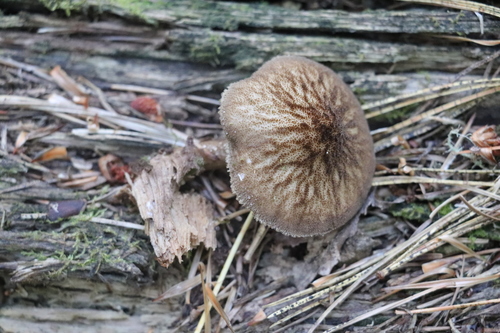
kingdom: Fungi
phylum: Basidiomycota
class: Agaricomycetes
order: Agaricales
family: Pluteaceae
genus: Pluteus
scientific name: Pluteus umbrosus
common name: Velvet shield
